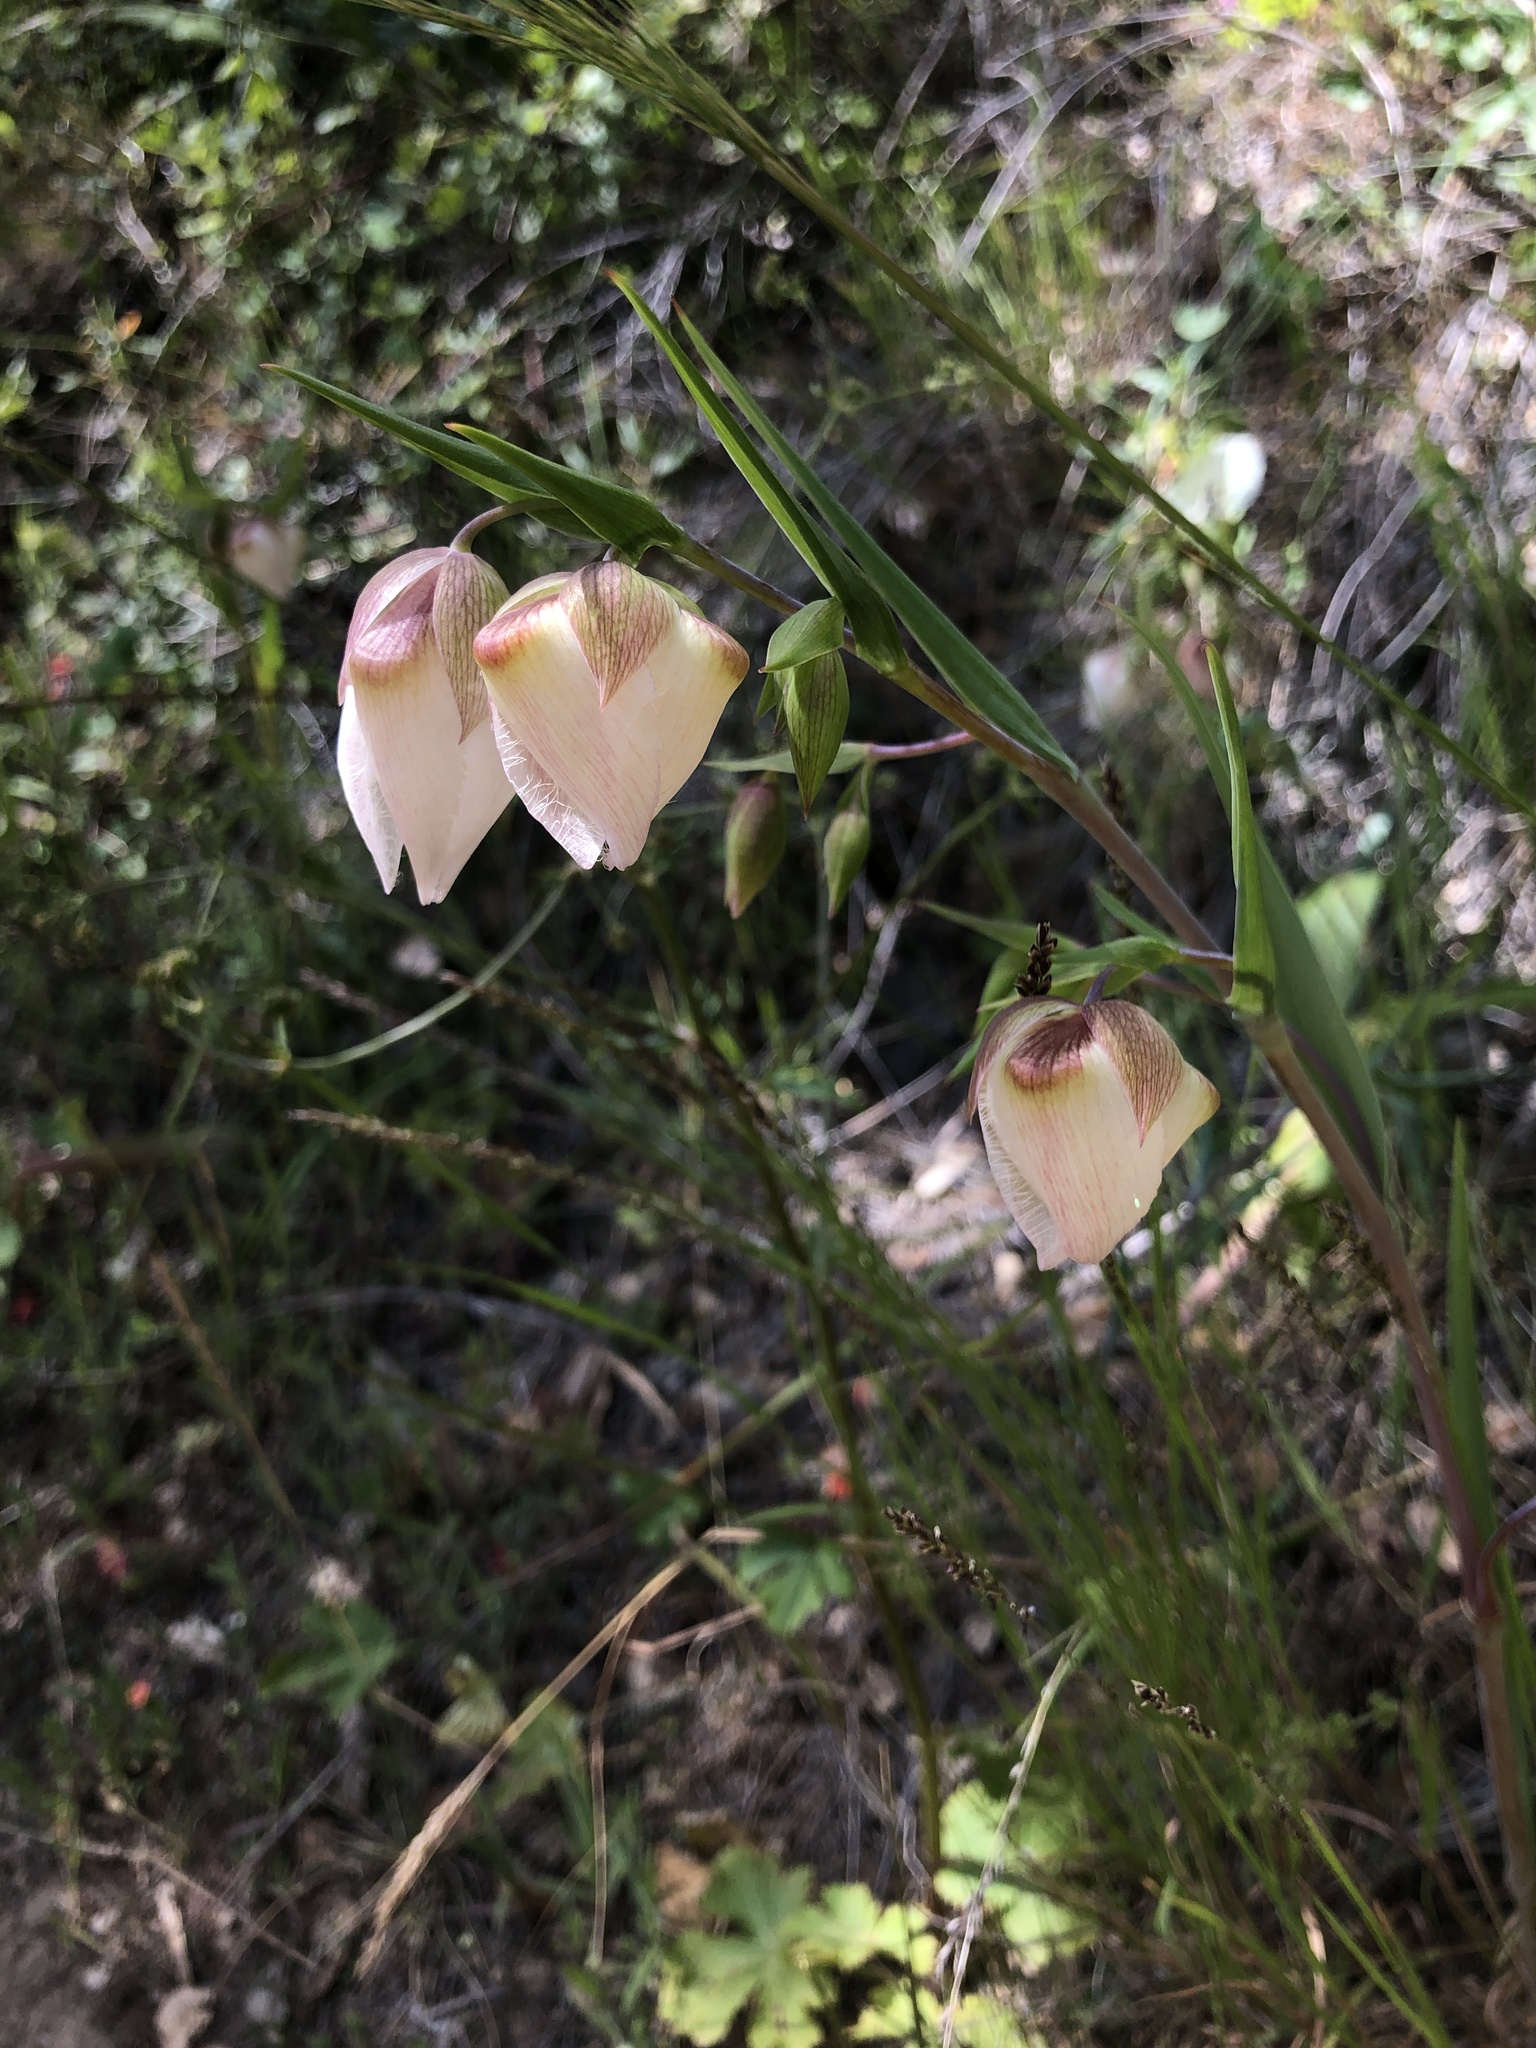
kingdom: Plantae
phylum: Tracheophyta
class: Liliopsida
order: Liliales
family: Liliaceae
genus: Calochortus
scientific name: Calochortus albus
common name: Fairy-lantern
